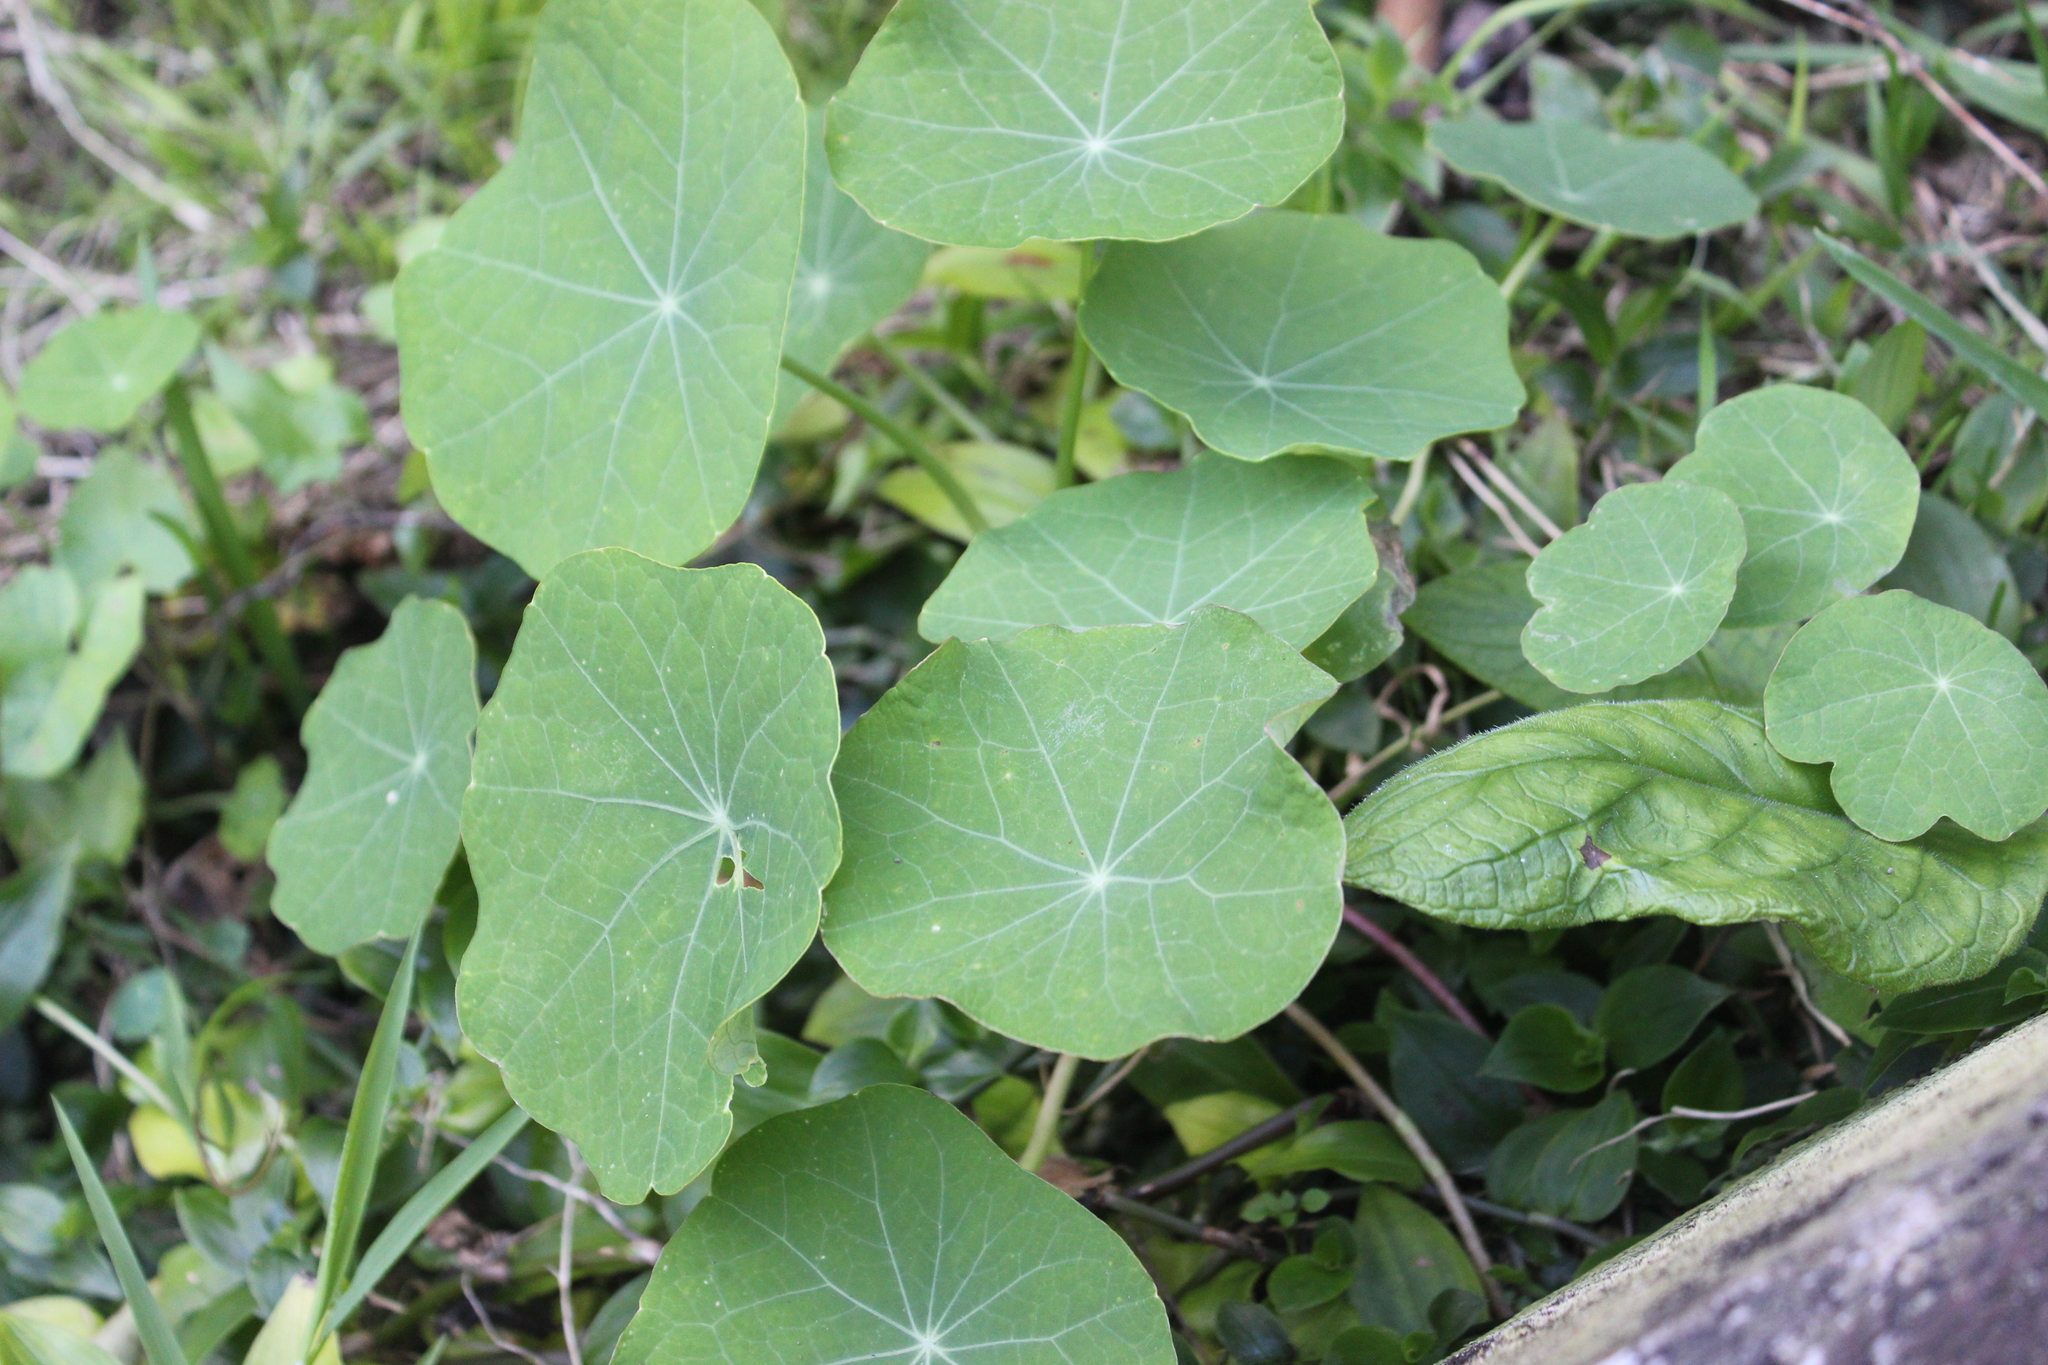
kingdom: Plantae
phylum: Tracheophyta
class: Magnoliopsida
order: Brassicales
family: Tropaeolaceae
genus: Tropaeolum
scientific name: Tropaeolum majus
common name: Nasturtium
